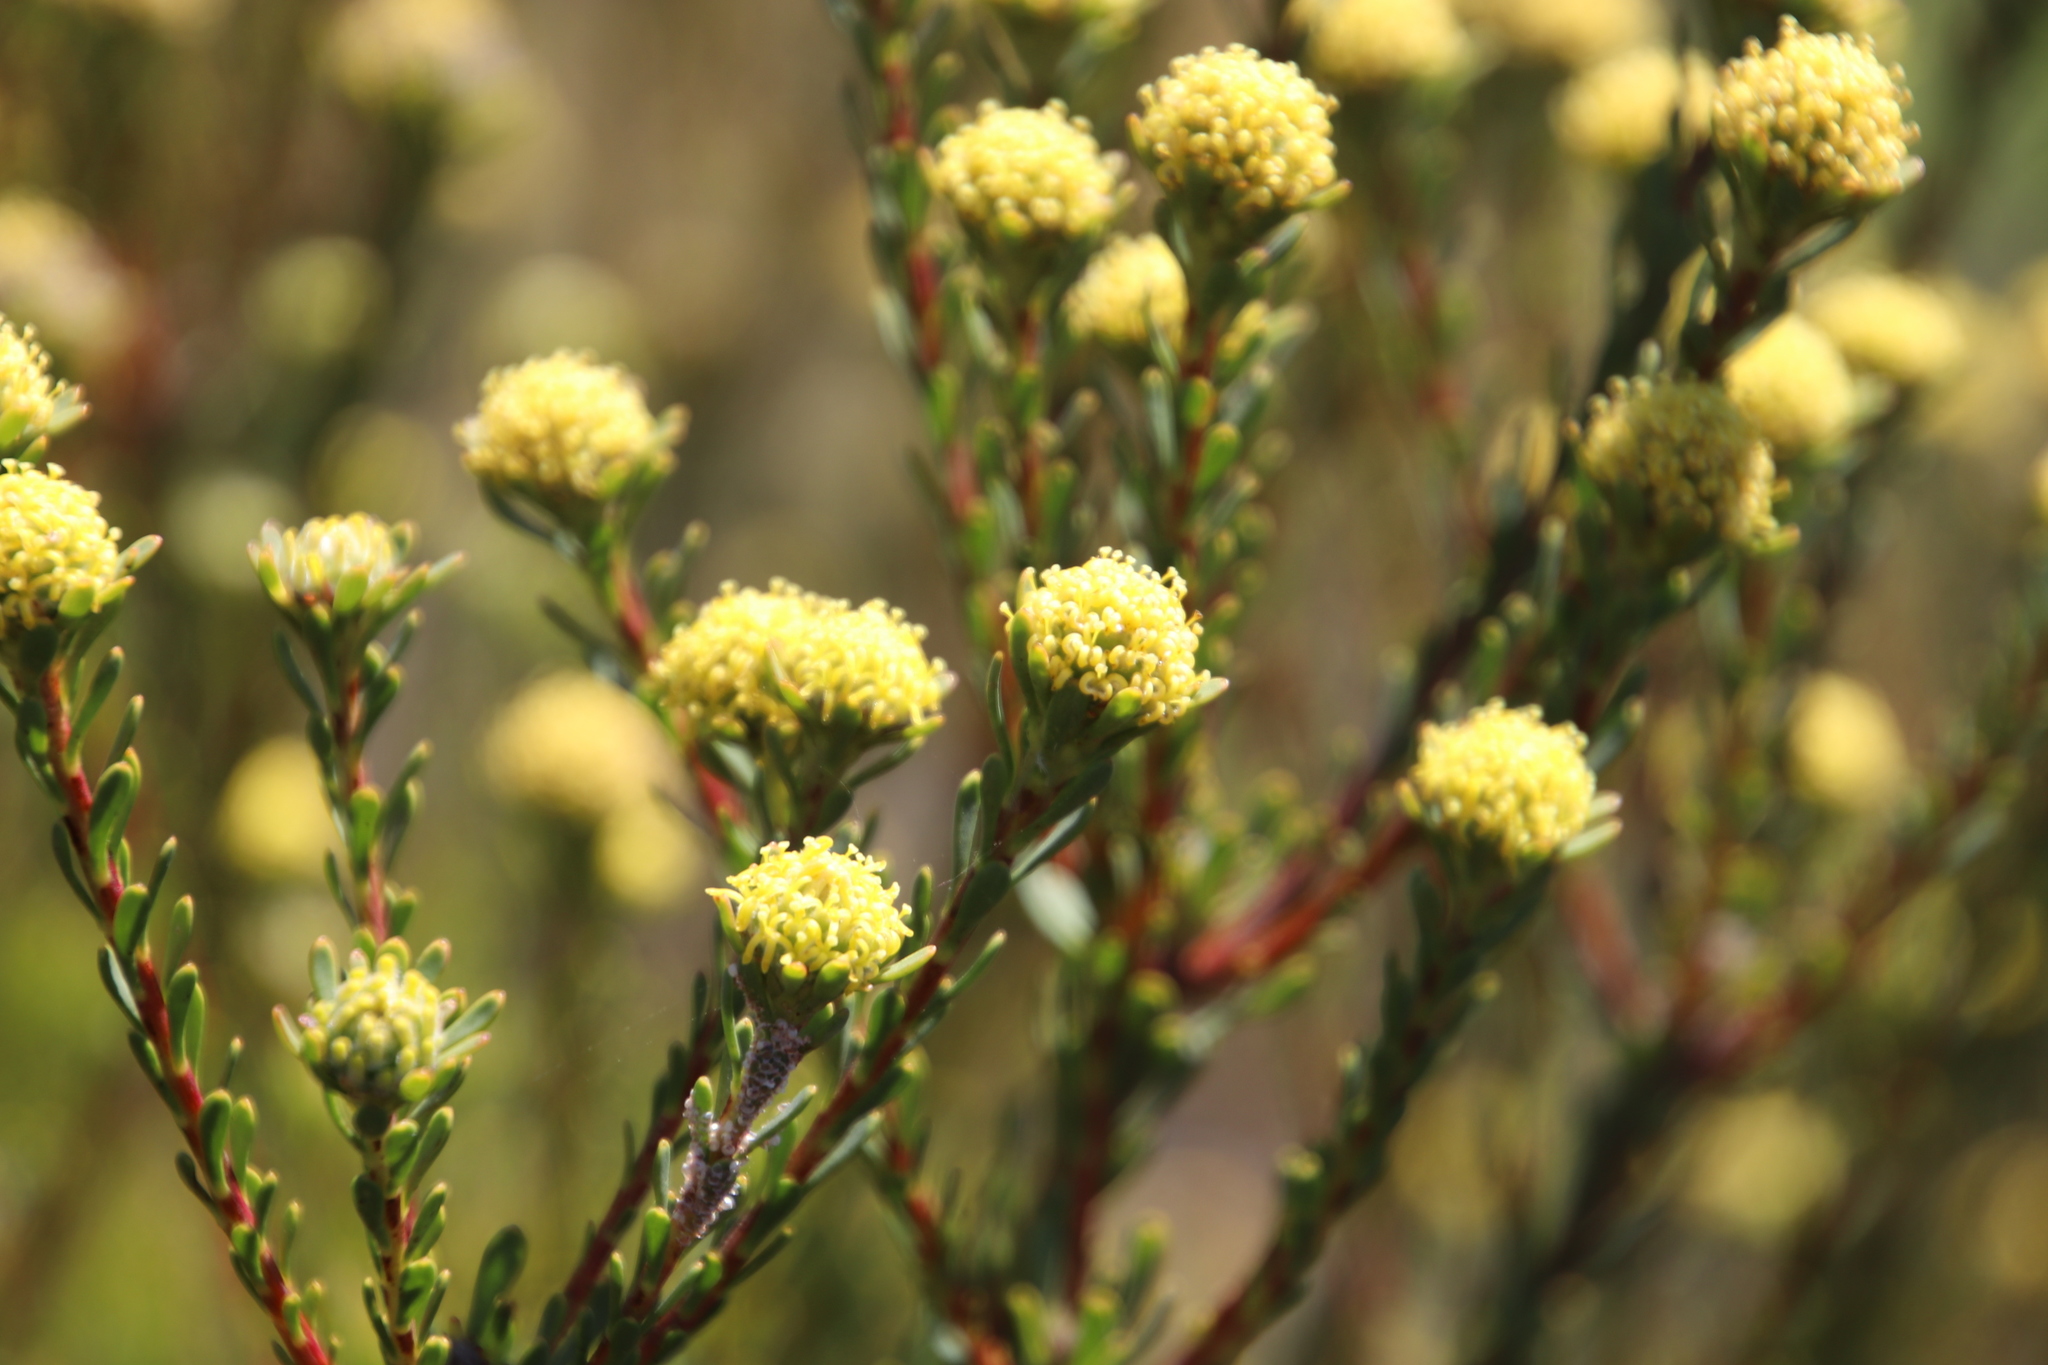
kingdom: Plantae
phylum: Tracheophyta
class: Magnoliopsida
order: Proteales
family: Proteaceae
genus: Leucadendron
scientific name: Leucadendron levisanus
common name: Cape flats conebush
